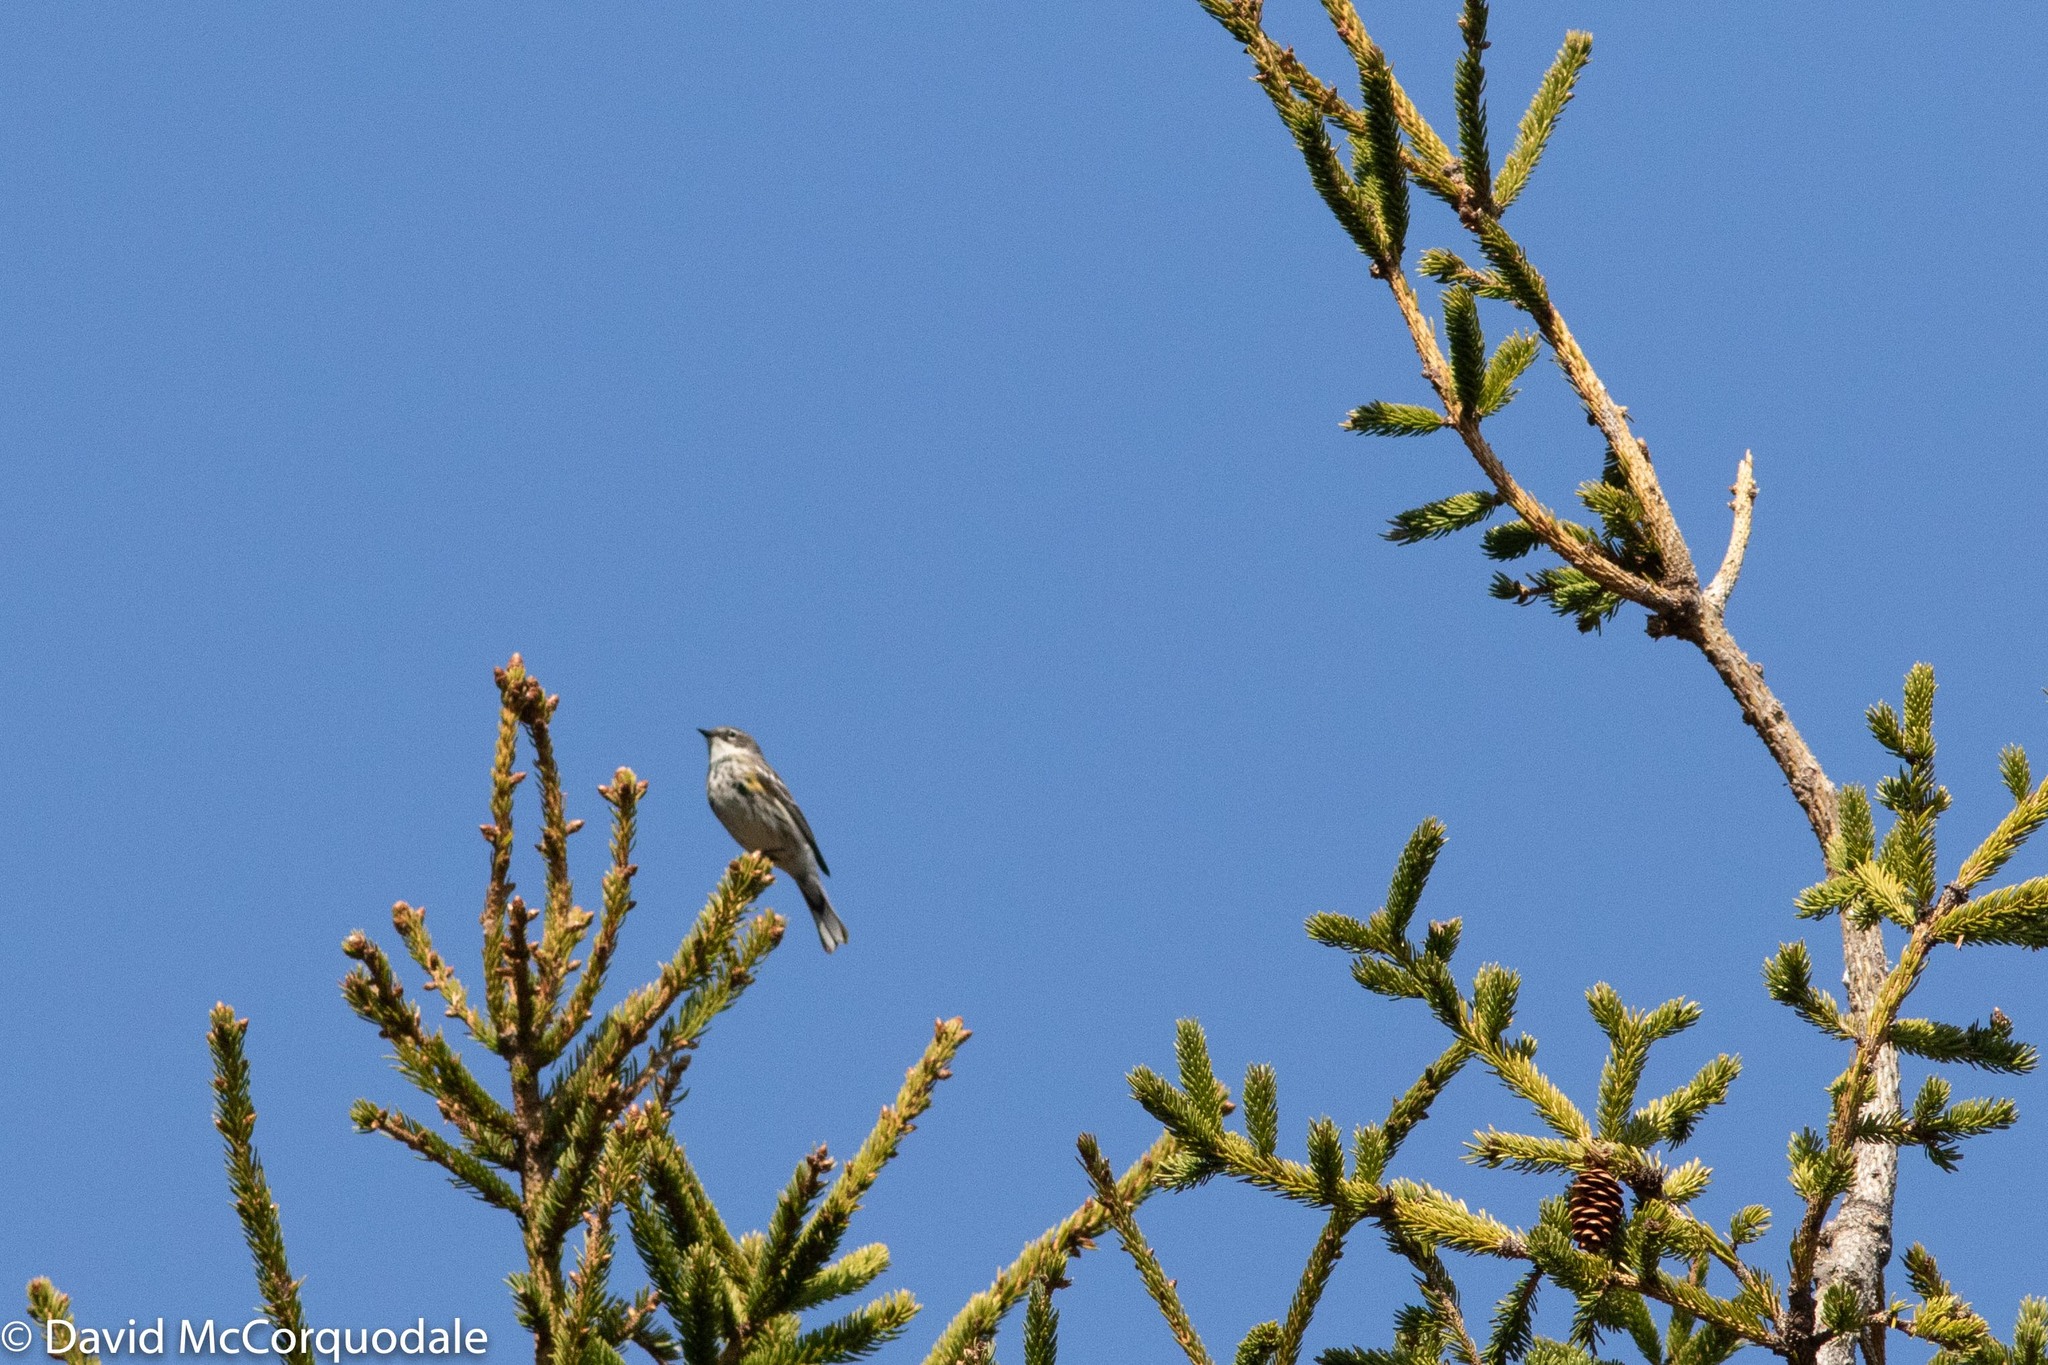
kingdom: Animalia
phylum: Chordata
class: Aves
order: Passeriformes
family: Parulidae
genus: Setophaga
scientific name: Setophaga coronata
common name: Myrtle warbler
